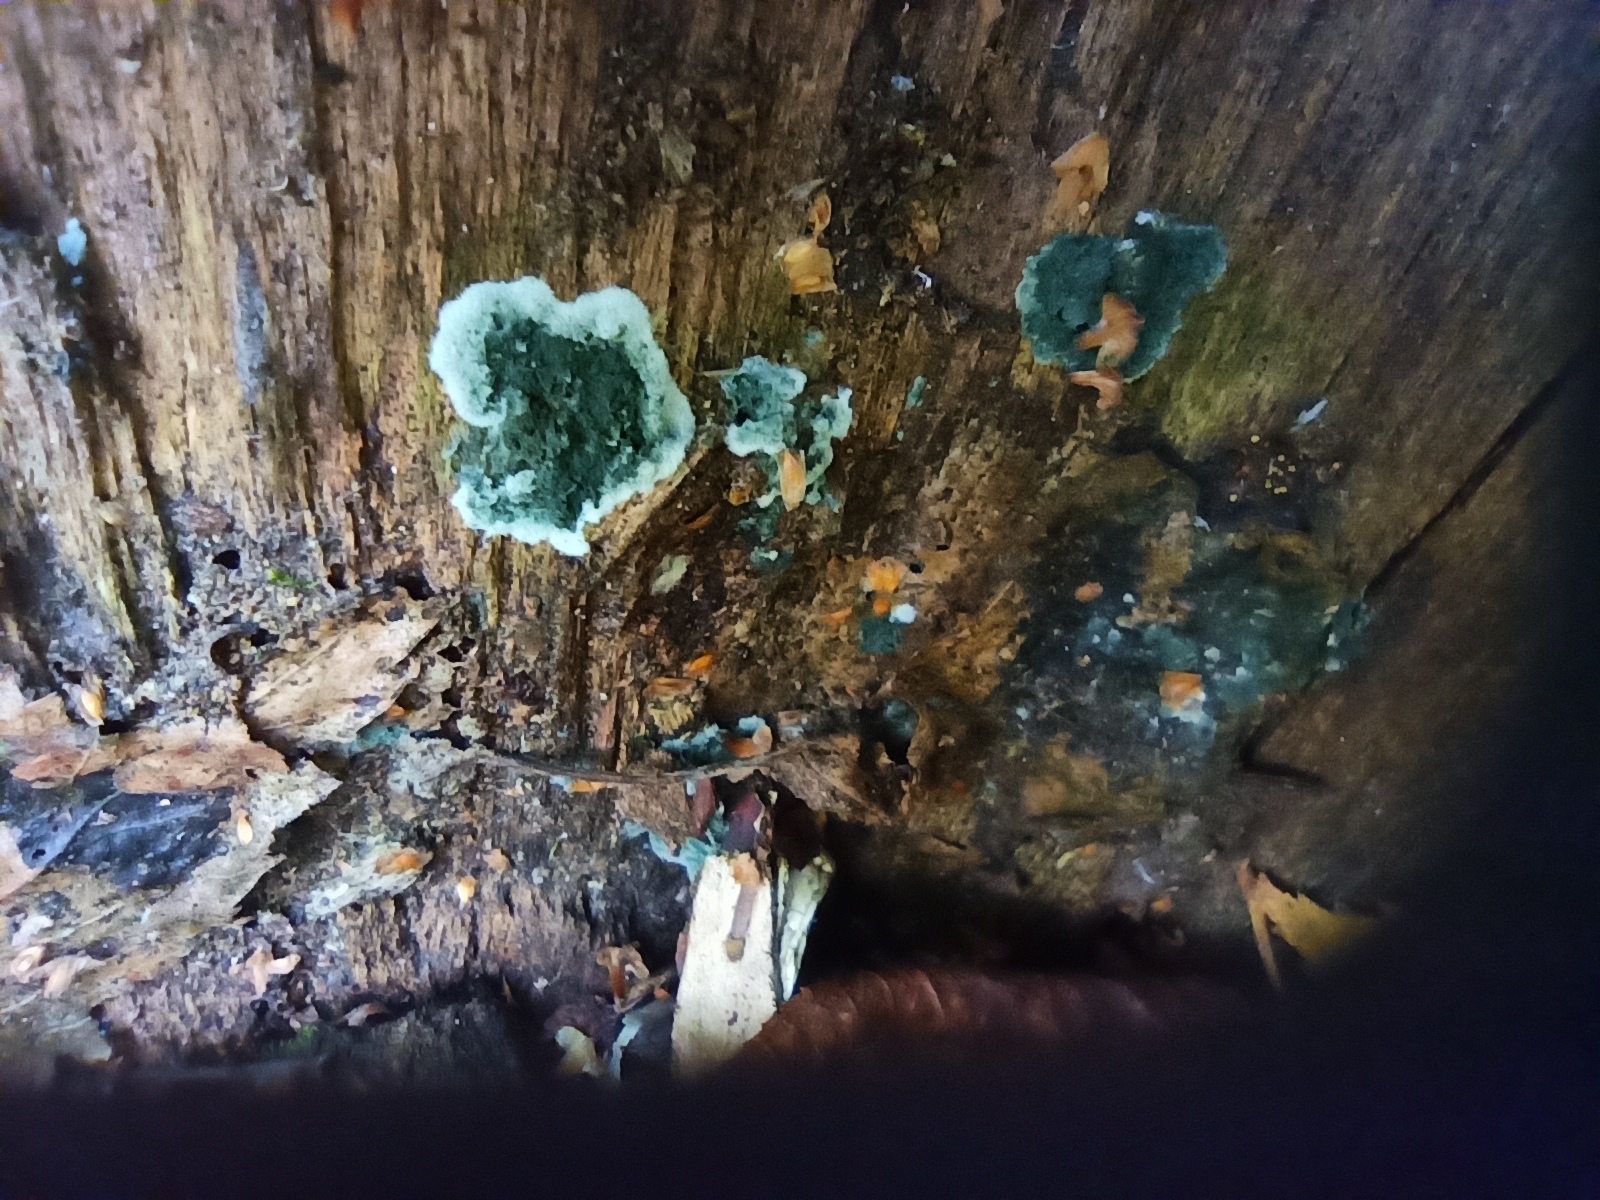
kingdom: Fungi
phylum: Ascomycota
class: Sordariomycetes
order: Hypocreales
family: Hypocreaceae
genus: Trichoderma
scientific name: Trichoderma viride
